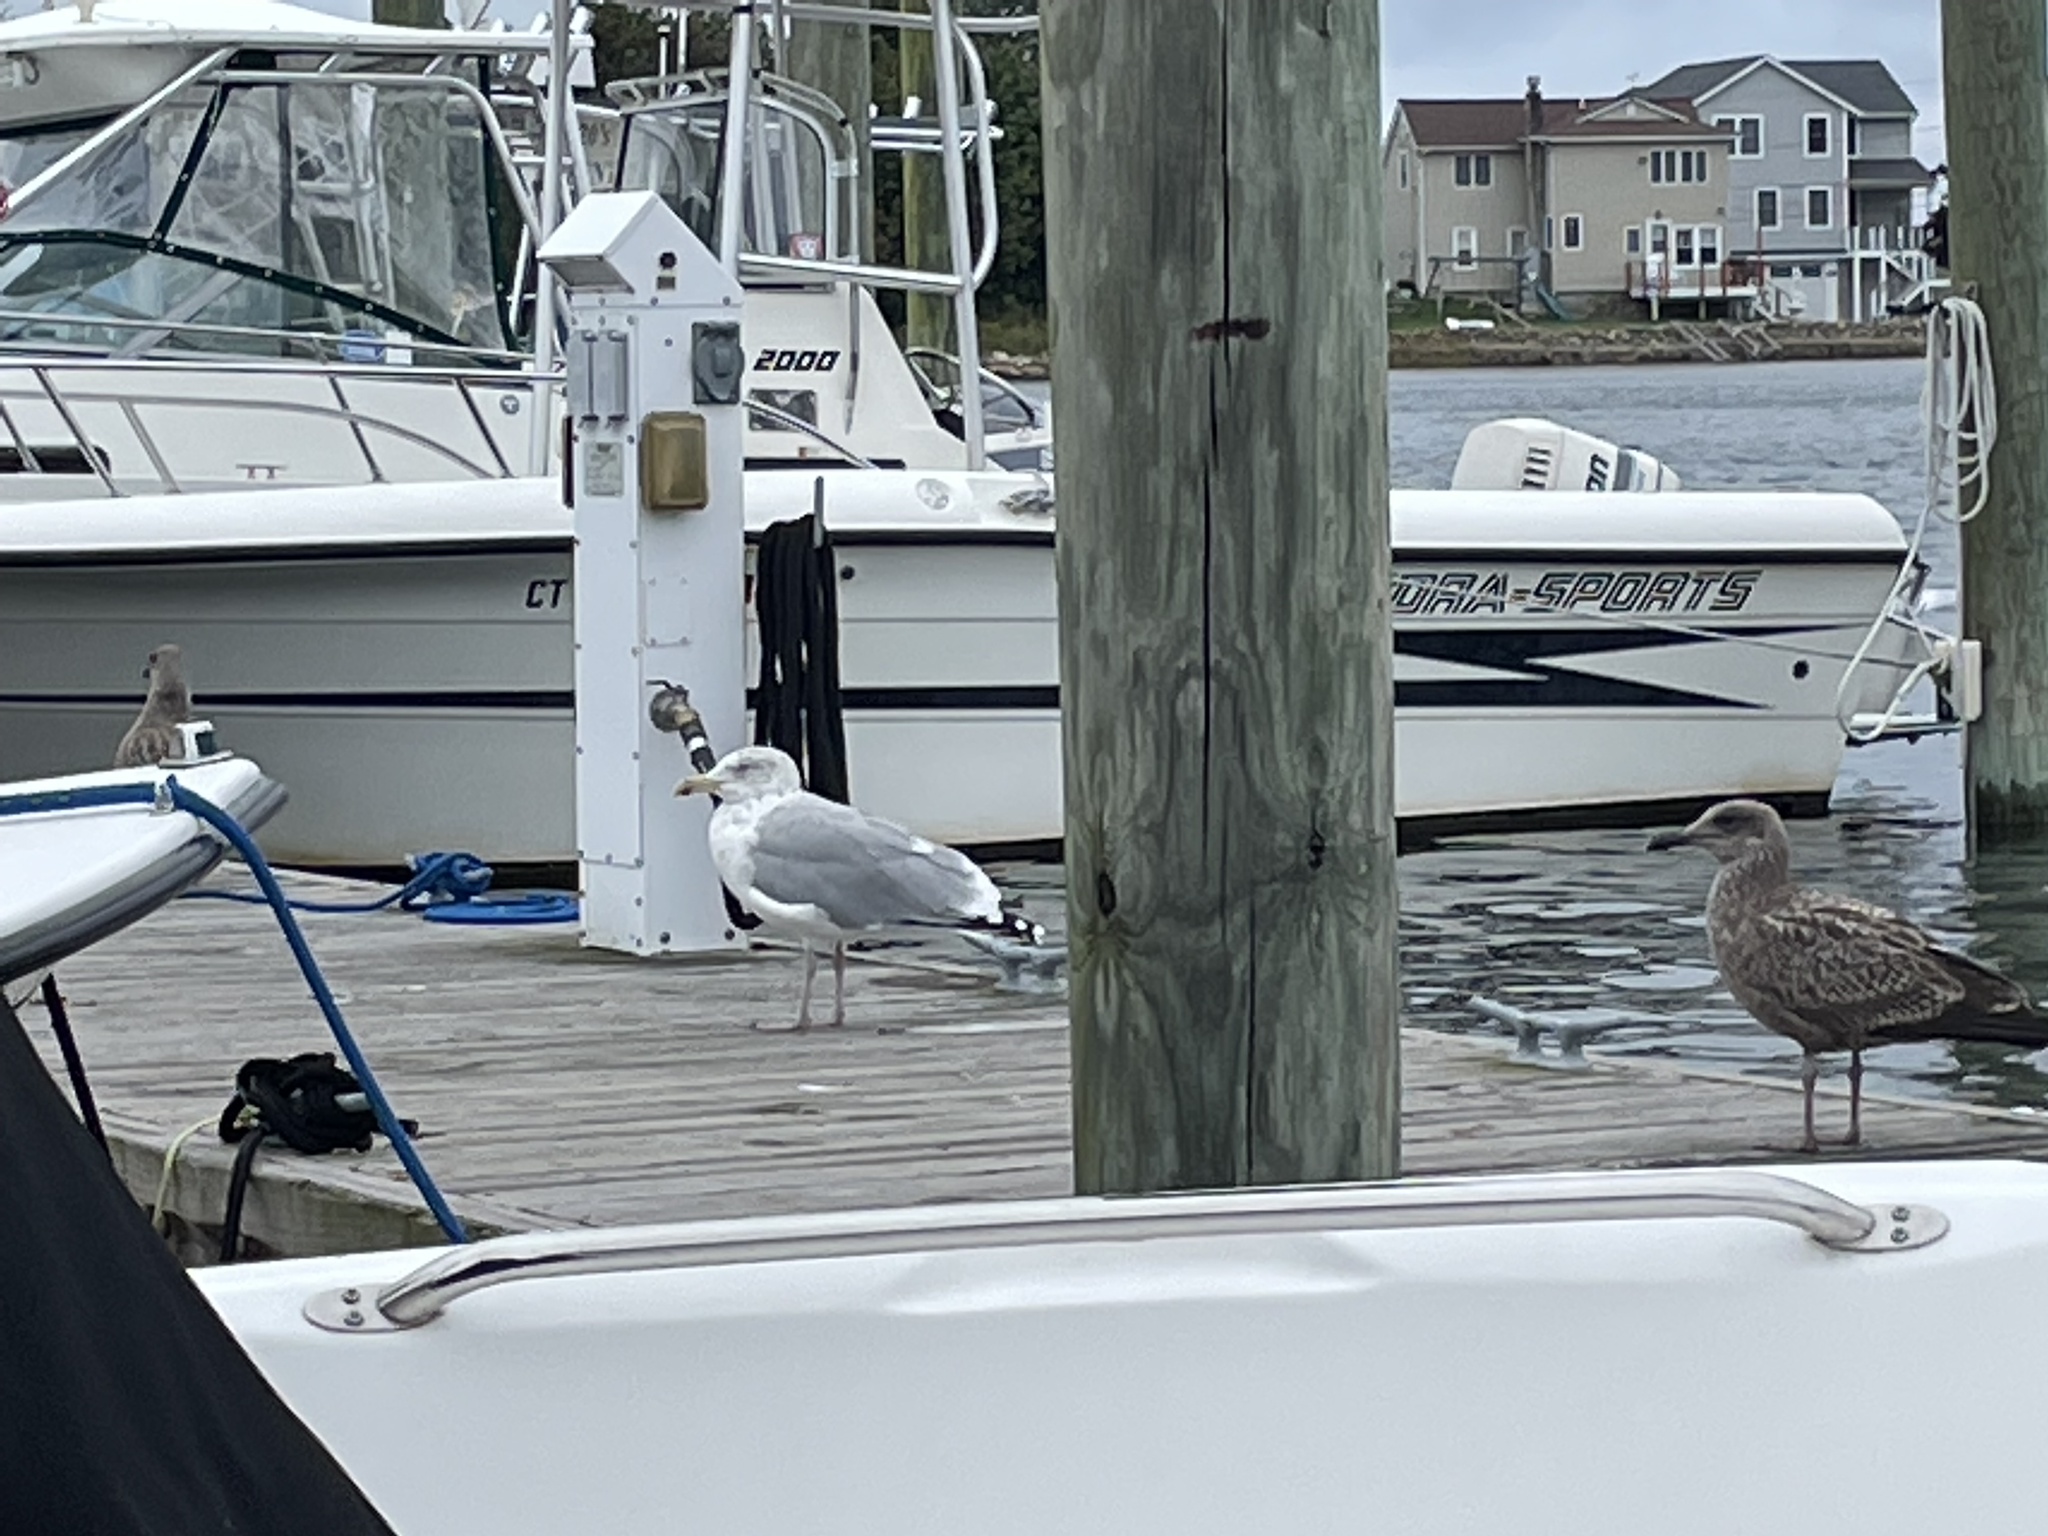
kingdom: Animalia
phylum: Chordata
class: Aves
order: Charadriiformes
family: Laridae
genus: Larus
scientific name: Larus argentatus
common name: Herring gull
